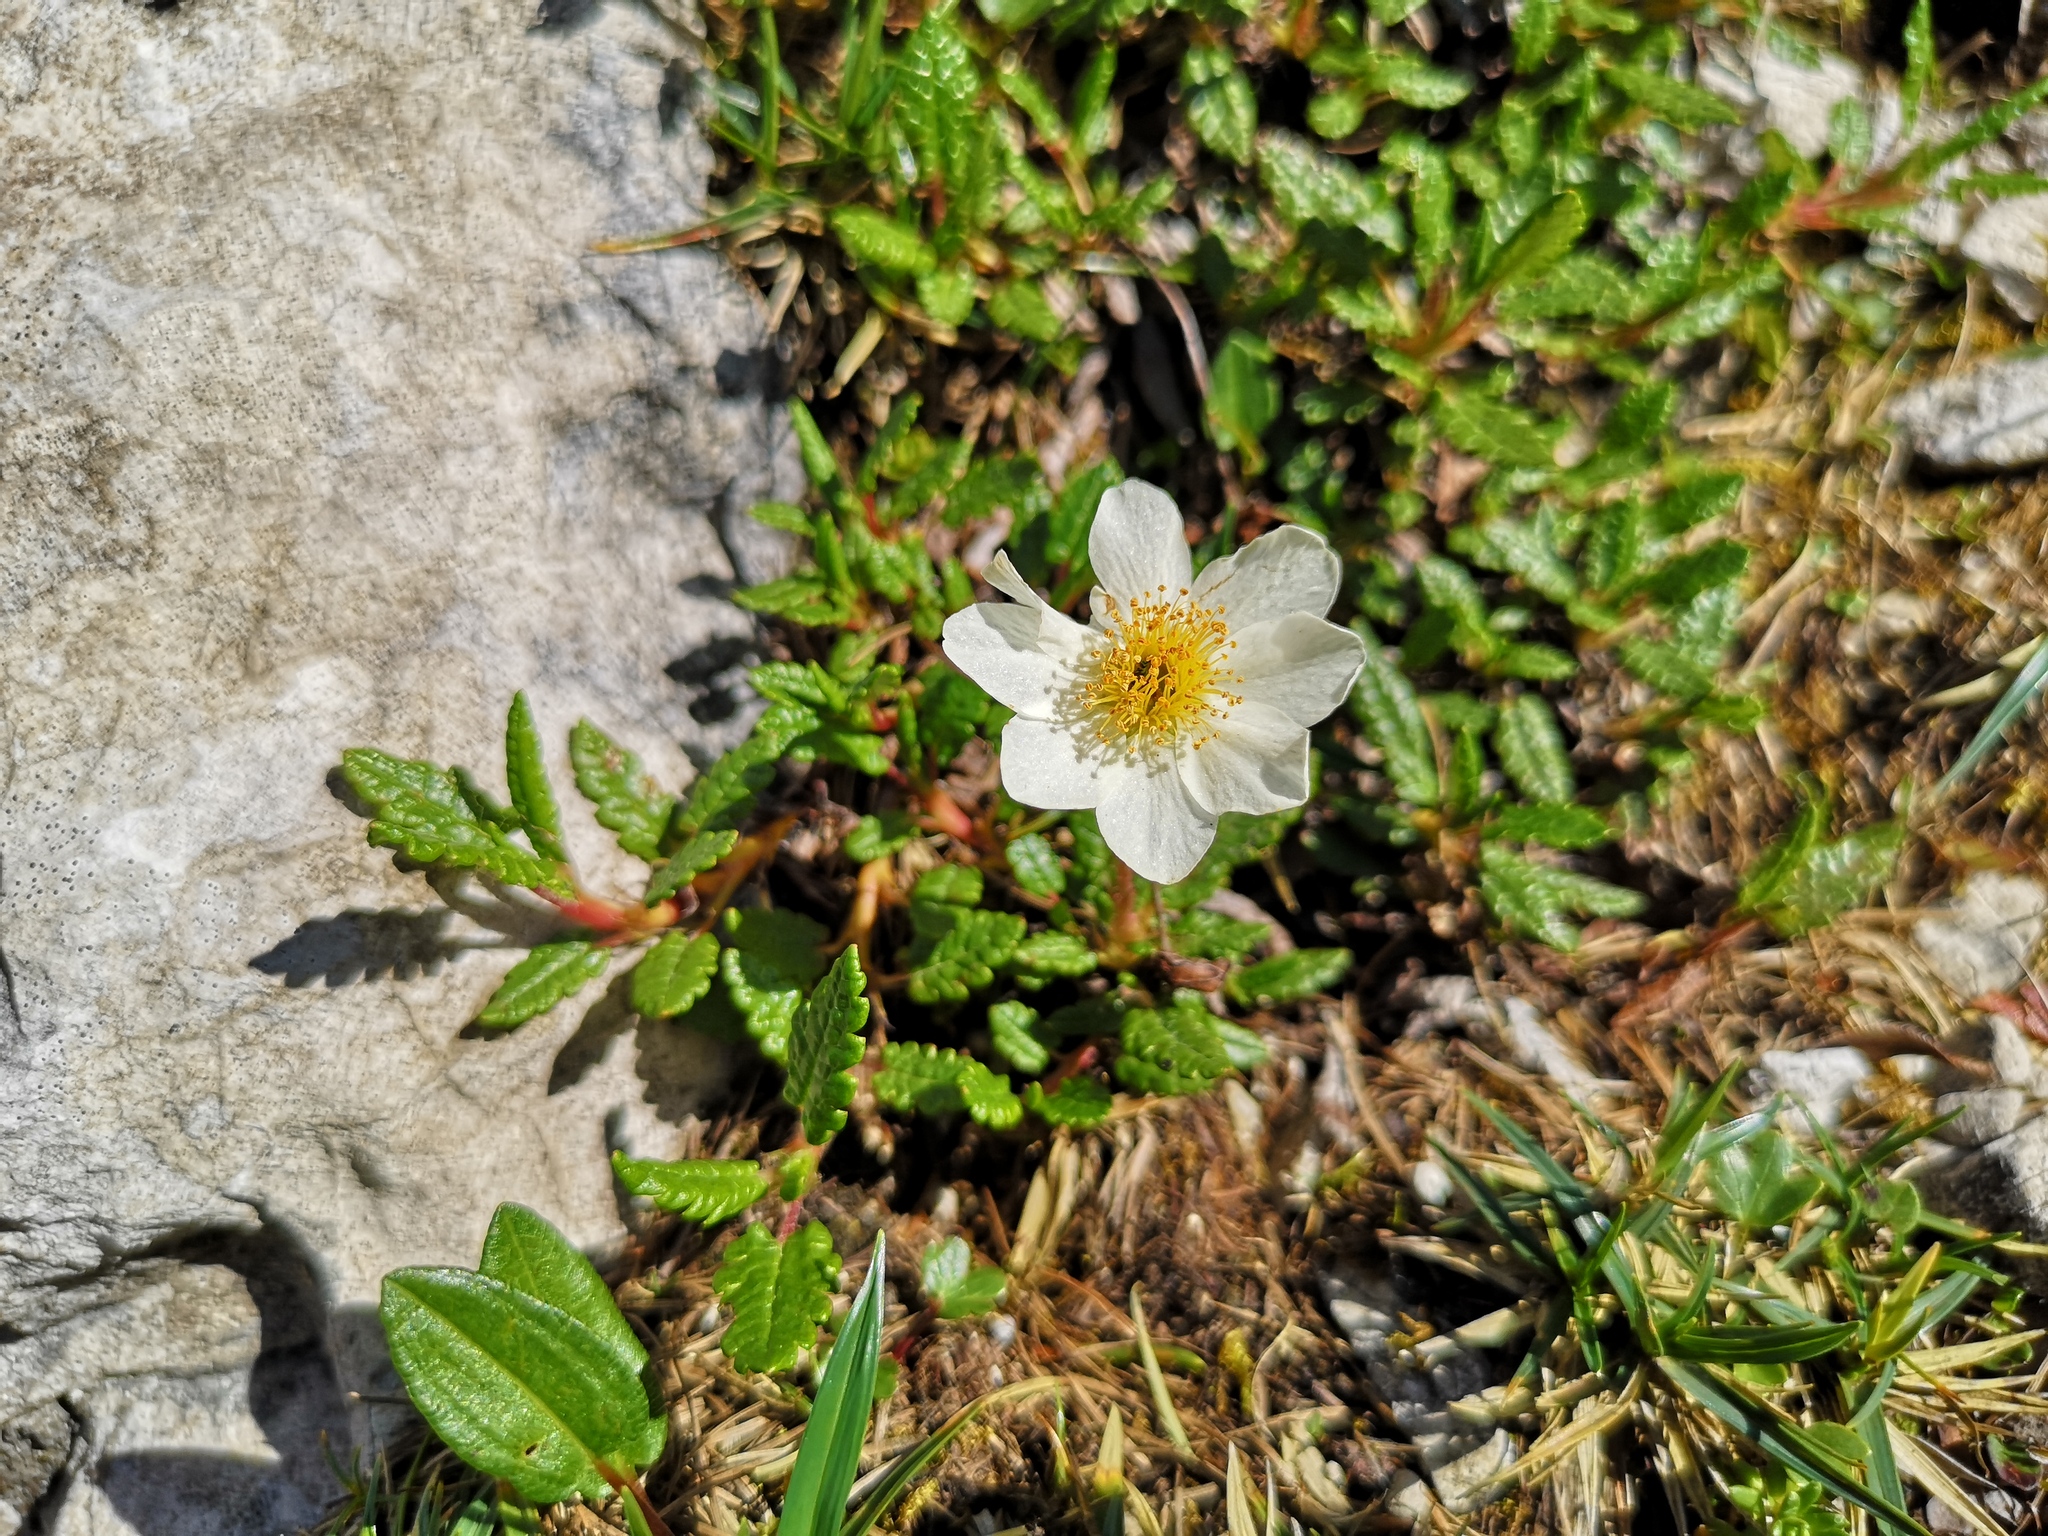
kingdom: Plantae
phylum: Tracheophyta
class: Magnoliopsida
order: Rosales
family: Rosaceae
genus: Dryas
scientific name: Dryas octopetala
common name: Eight-petal mountain-avens
